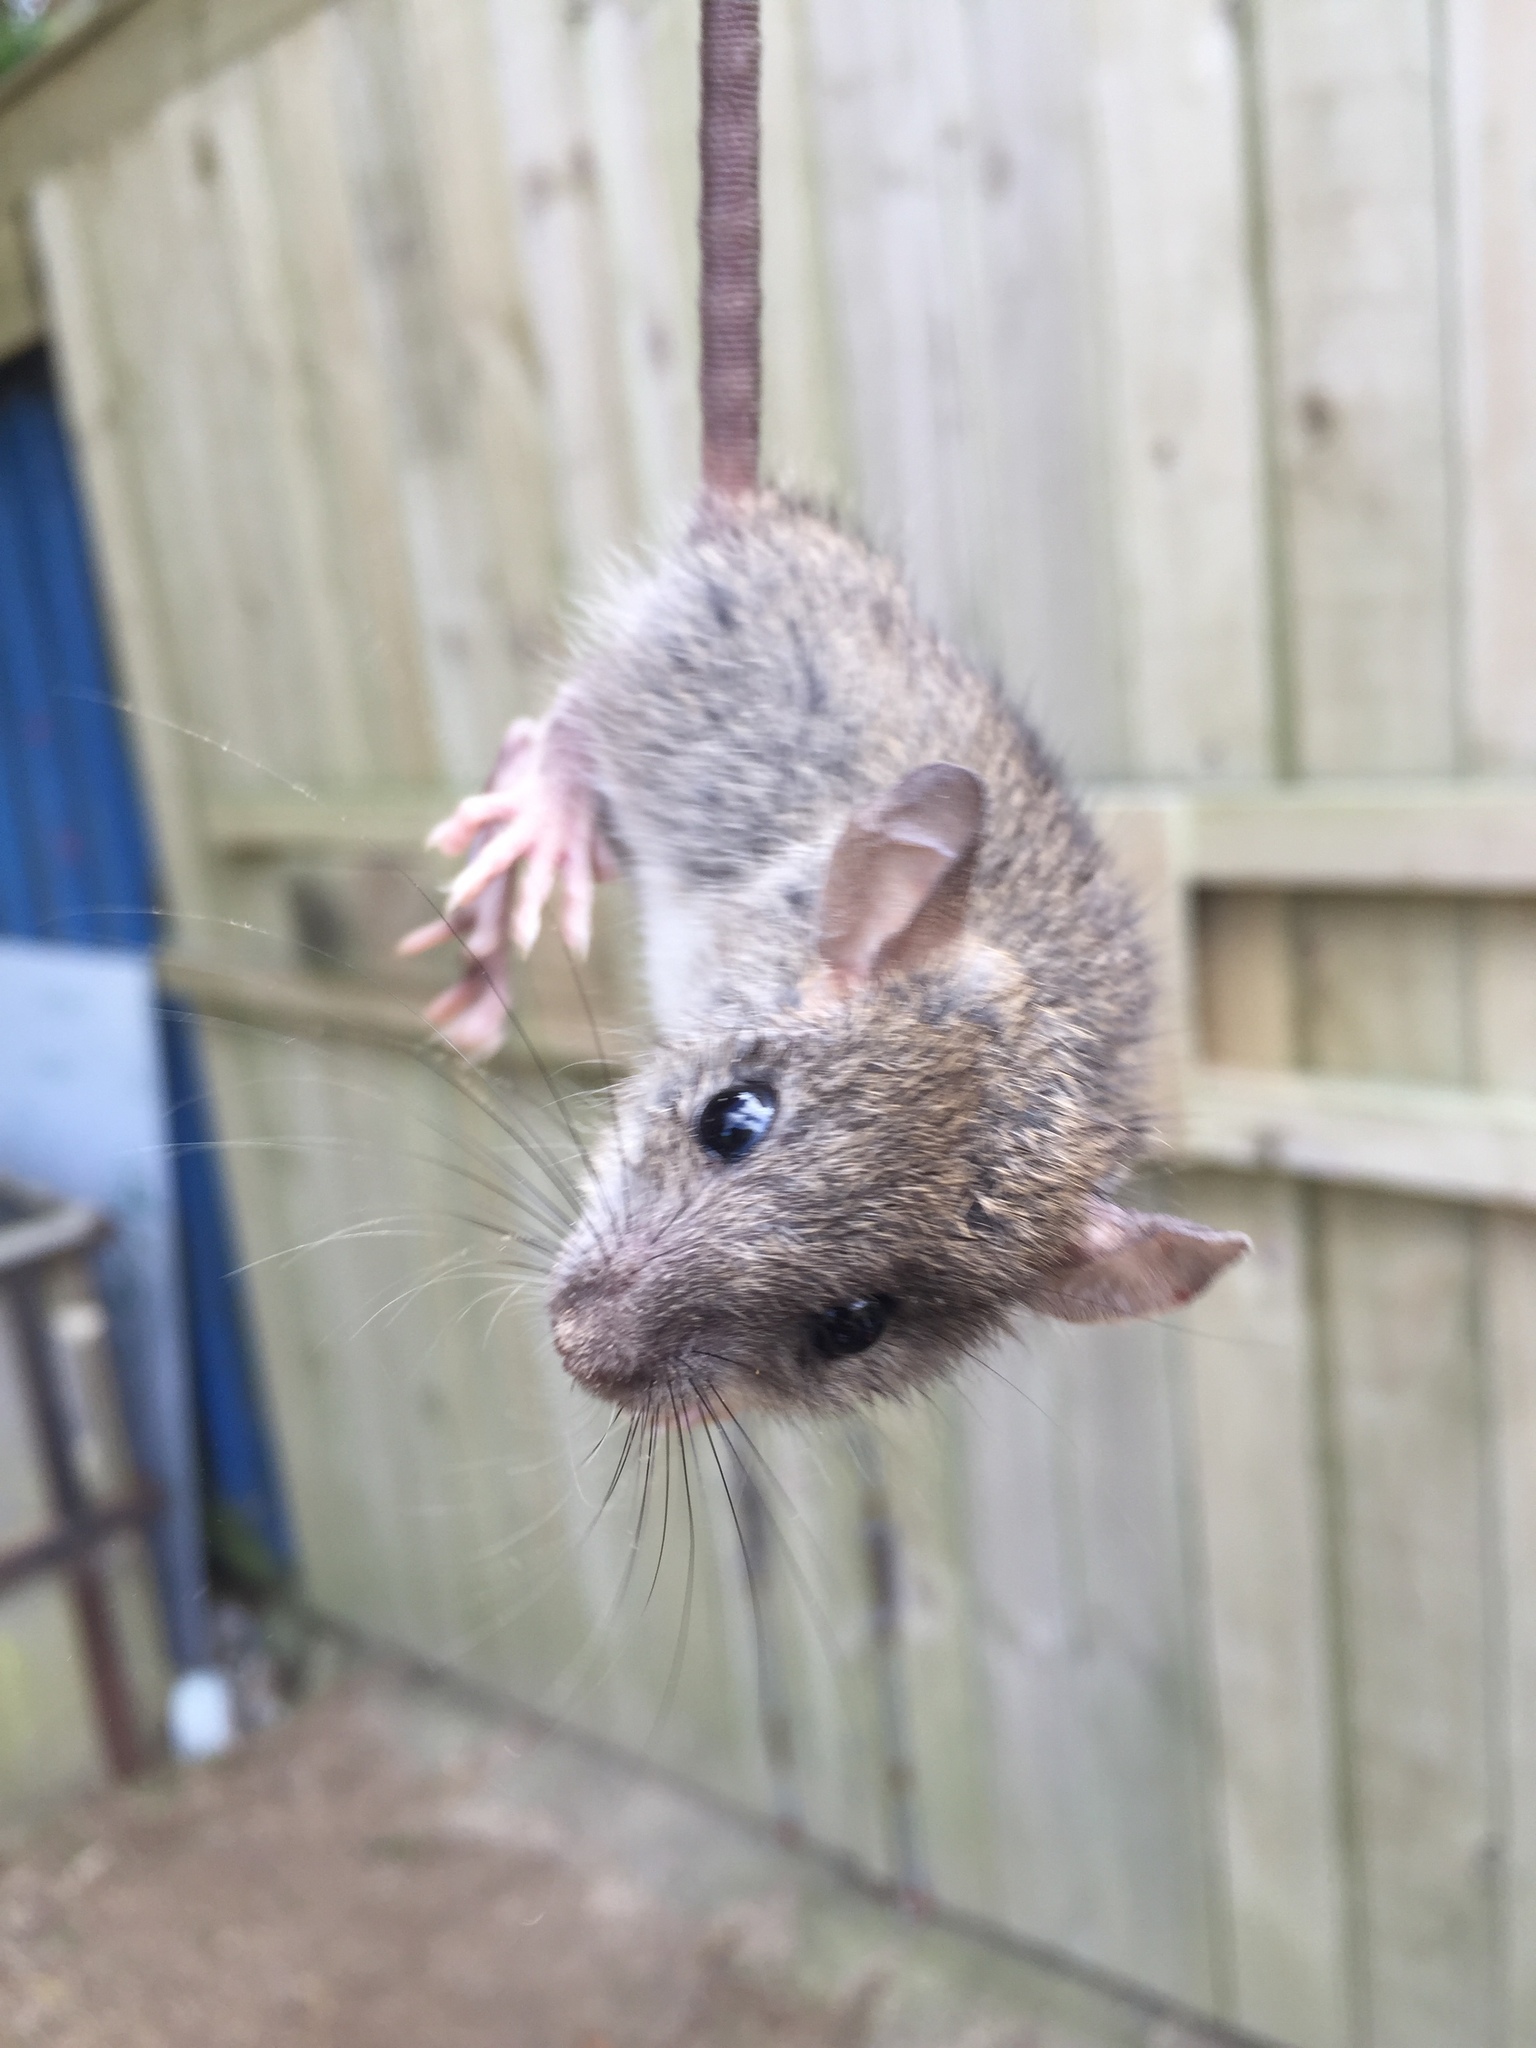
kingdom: Animalia
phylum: Chordata
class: Mammalia
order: Rodentia
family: Muridae
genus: Rattus
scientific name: Rattus rattus
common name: Black rat
